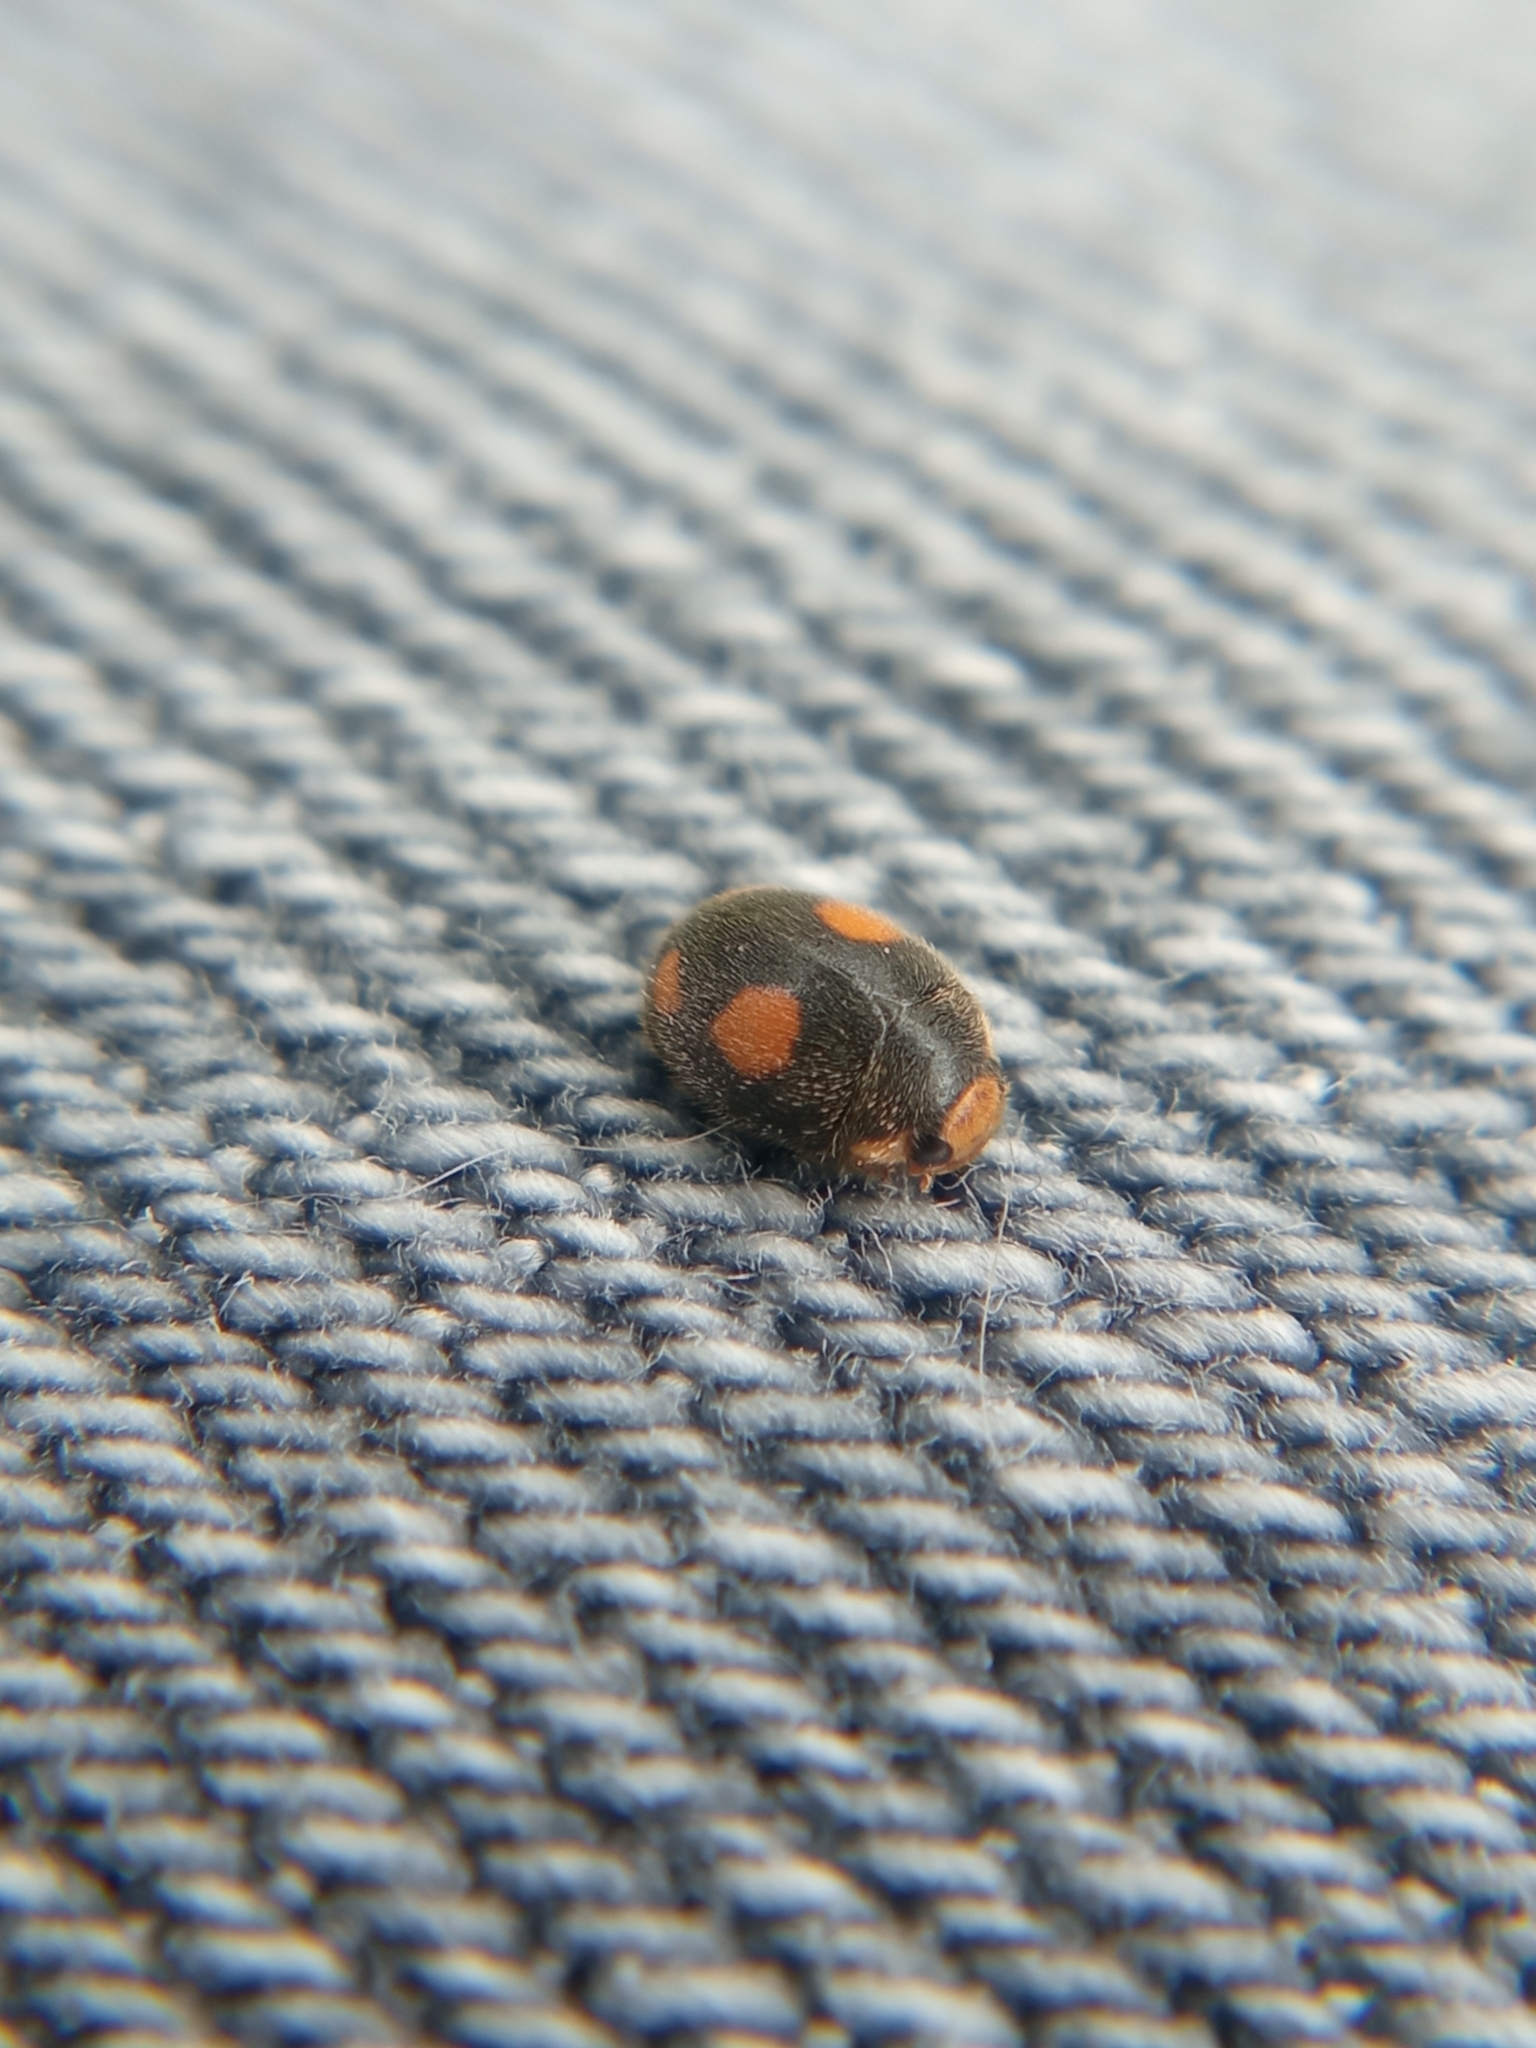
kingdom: Animalia
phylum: Arthropoda
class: Insecta
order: Coleoptera
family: Coccinellidae
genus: Platynaspis
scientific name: Platynaspis luteorubra
